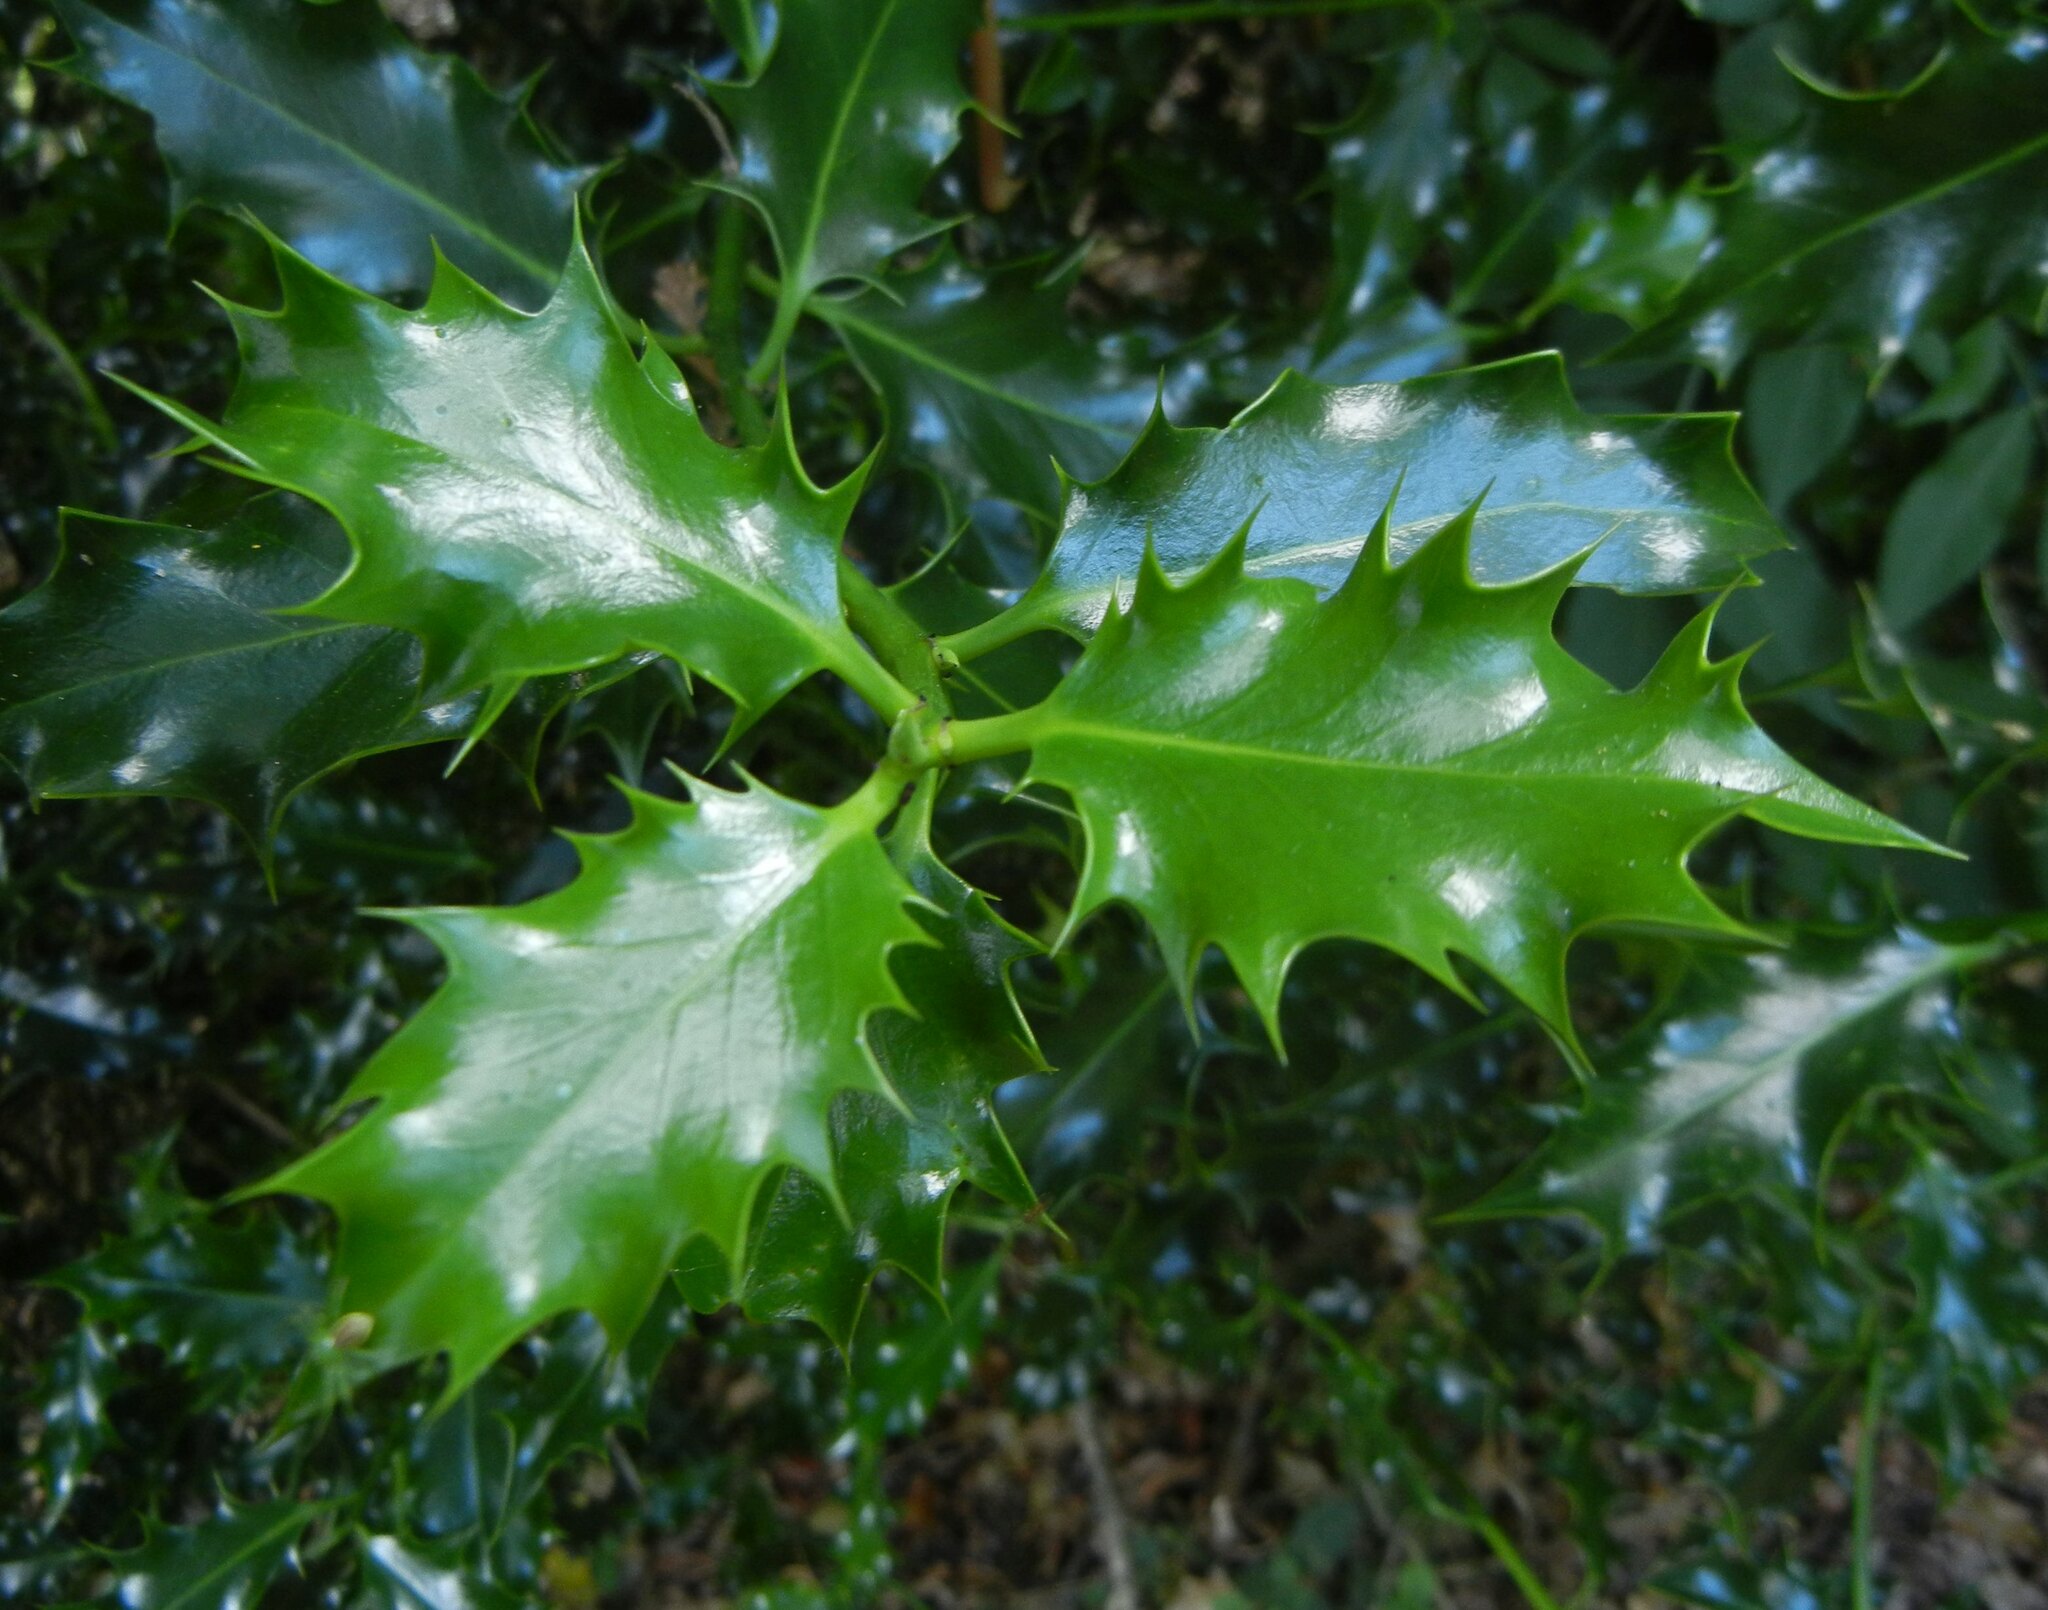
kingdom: Plantae
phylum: Tracheophyta
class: Magnoliopsida
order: Aquifoliales
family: Aquifoliaceae
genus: Ilex
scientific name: Ilex aquifolium
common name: English holly
